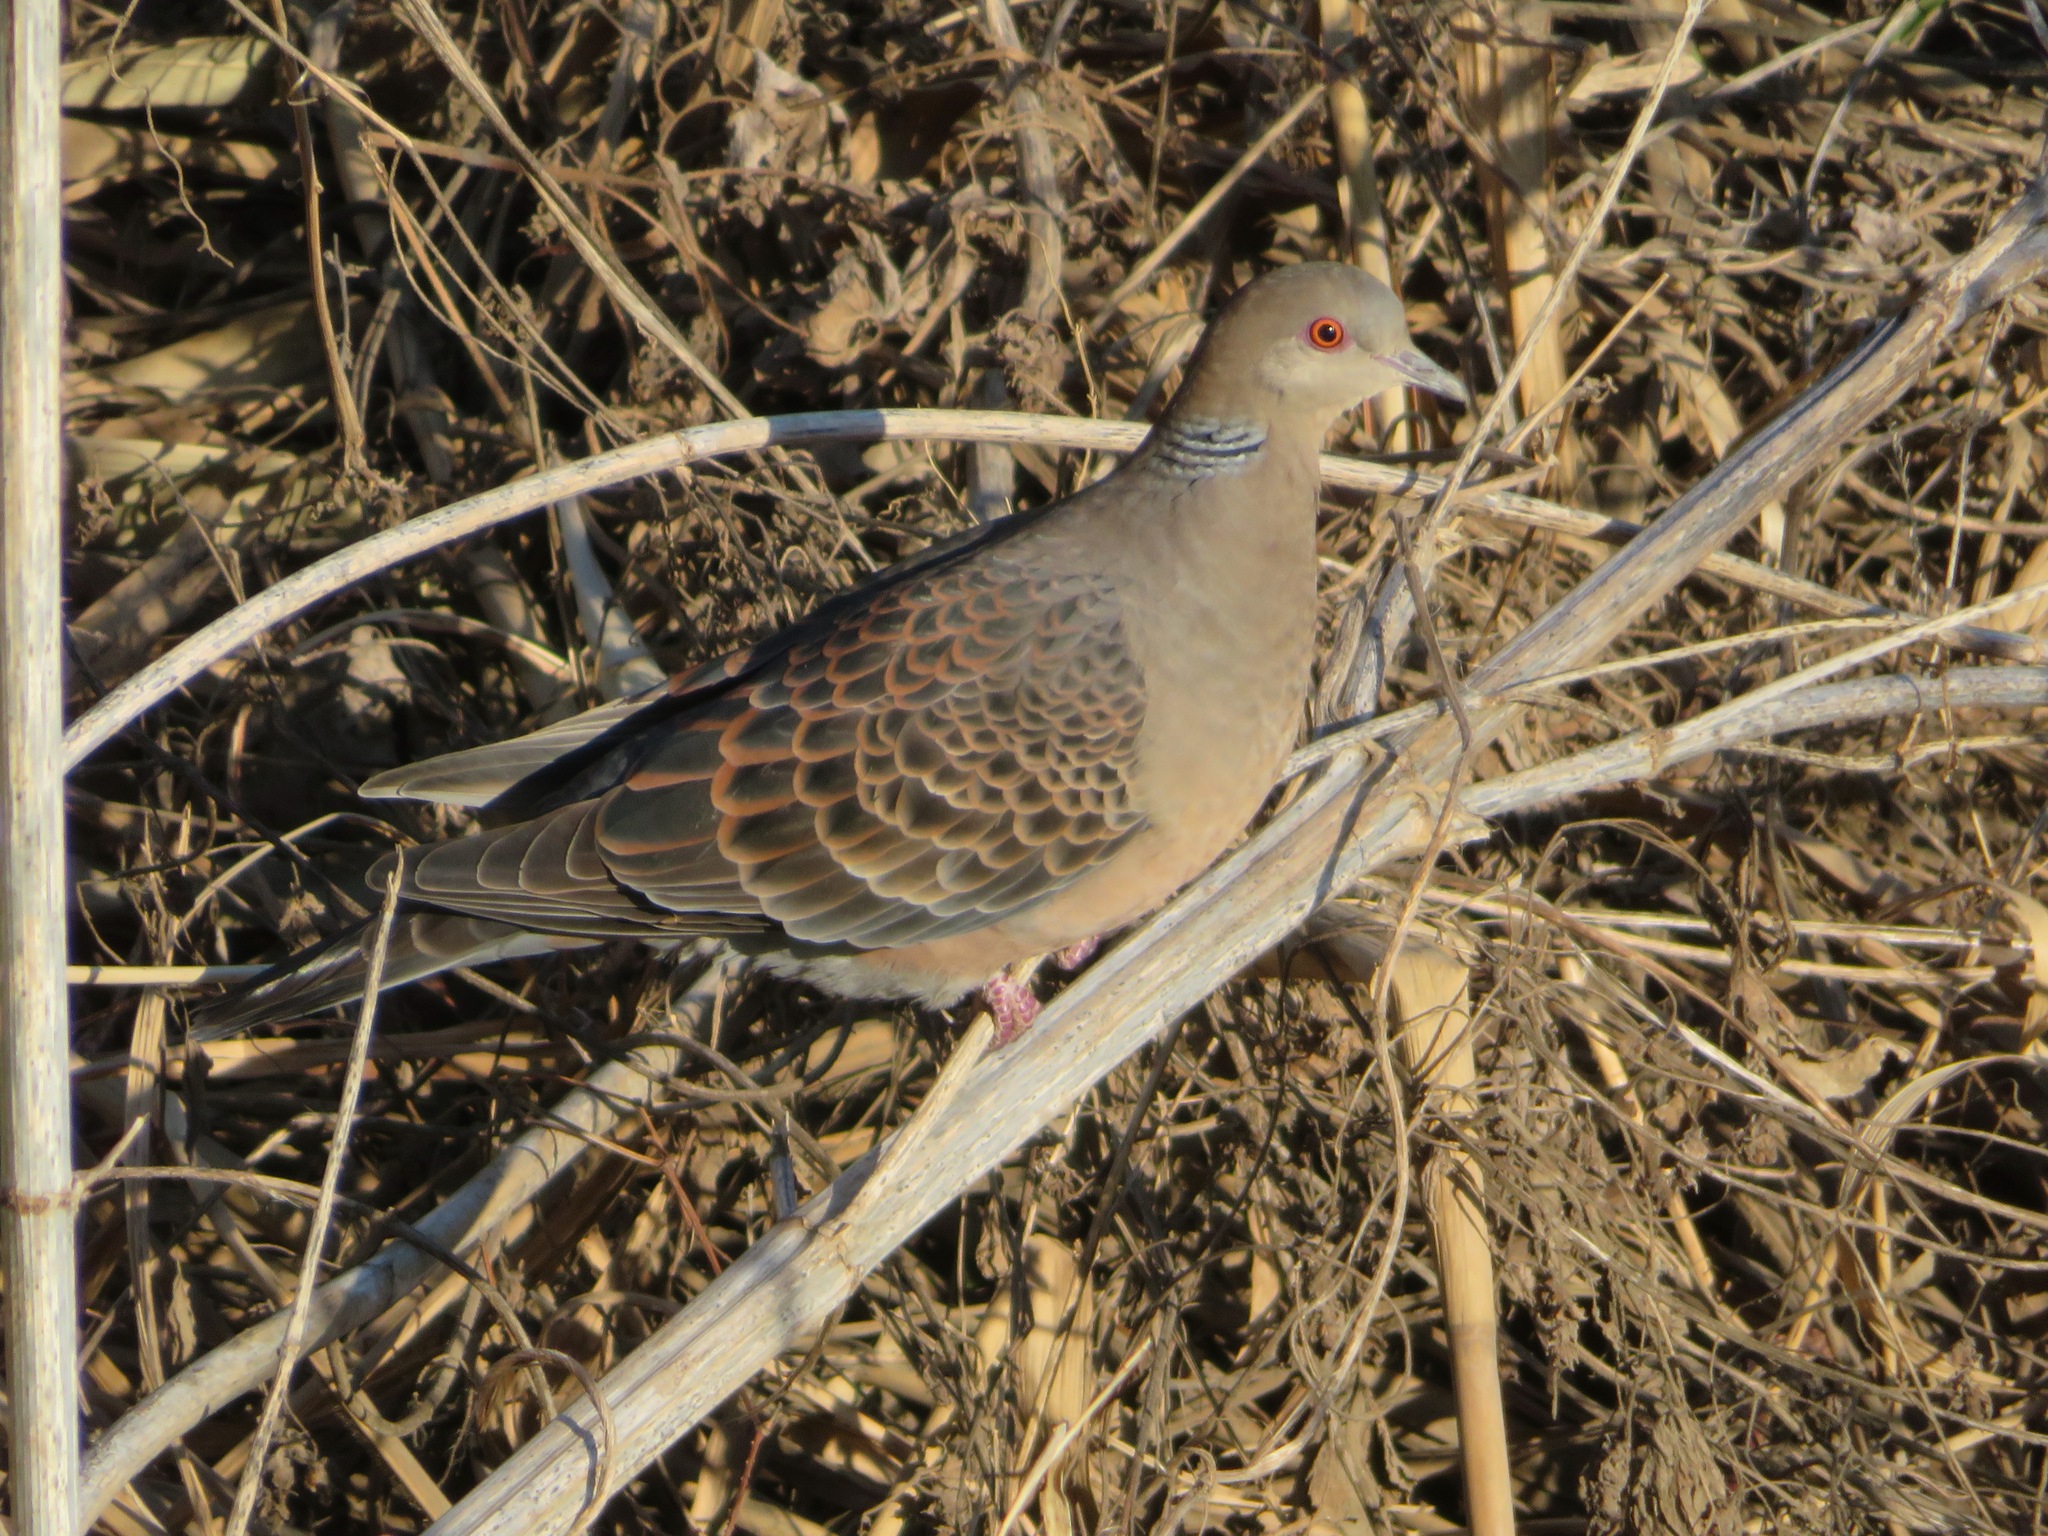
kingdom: Animalia
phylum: Chordata
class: Aves
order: Columbiformes
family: Columbidae
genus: Streptopelia
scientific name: Streptopelia orientalis
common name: Oriental turtle dove
